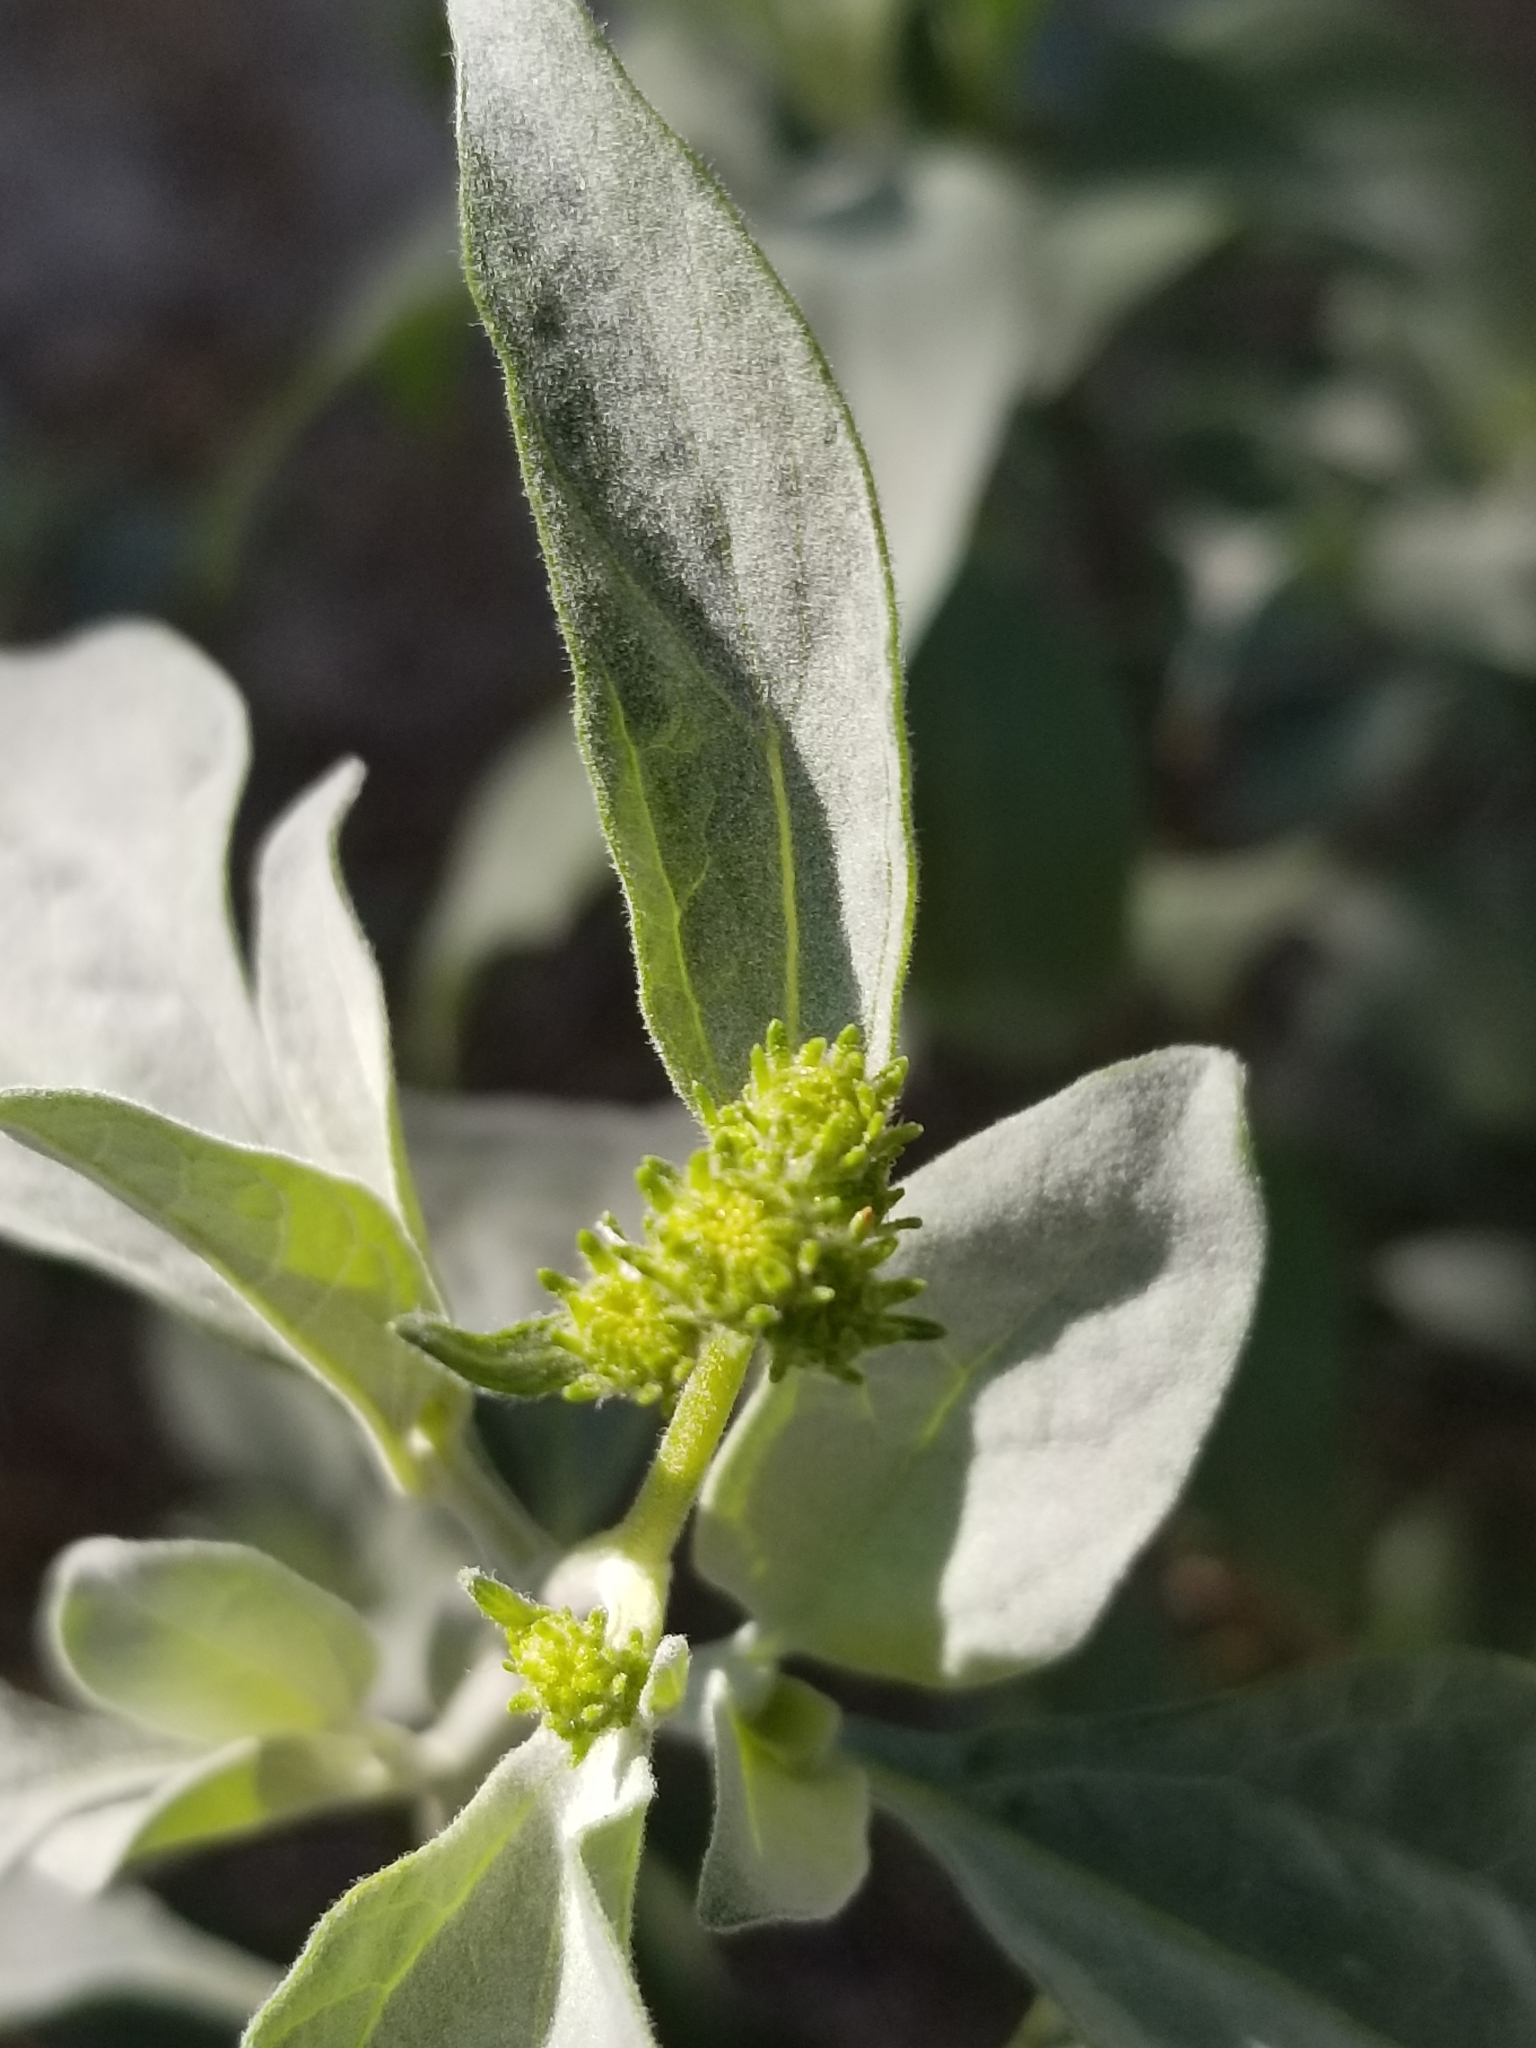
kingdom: Plantae
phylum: Tracheophyta
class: Magnoliopsida
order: Asterales
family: Asteraceae
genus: Encelia
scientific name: Encelia farinosa
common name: Brittlebush
